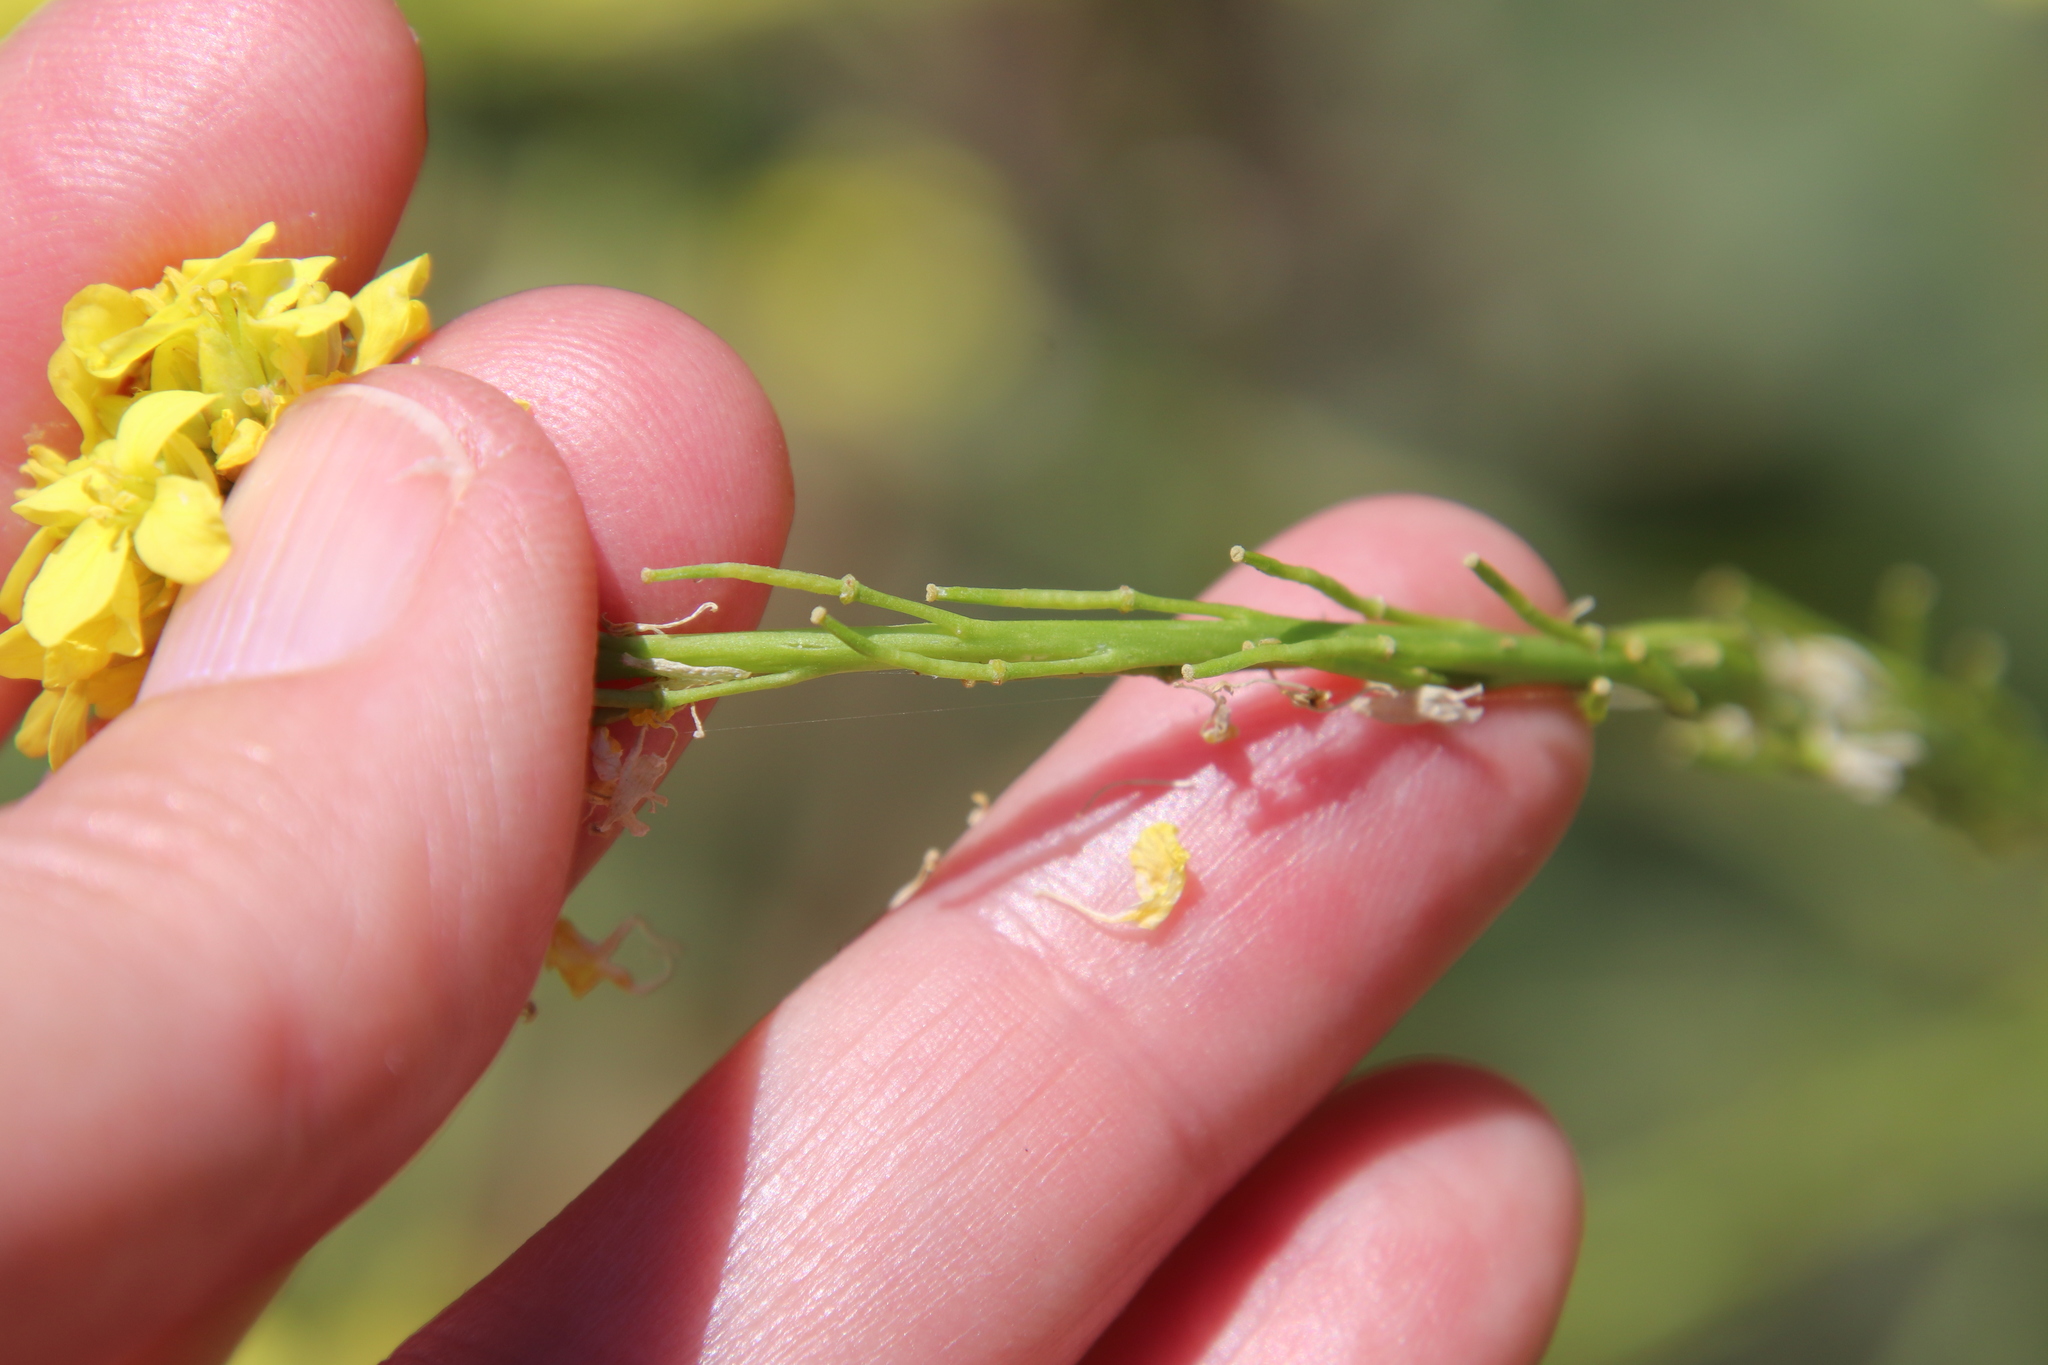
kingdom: Plantae
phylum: Tracheophyta
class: Magnoliopsida
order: Brassicales
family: Brassicaceae
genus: Hirschfeldia
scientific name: Hirschfeldia incana
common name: Hoary mustard
